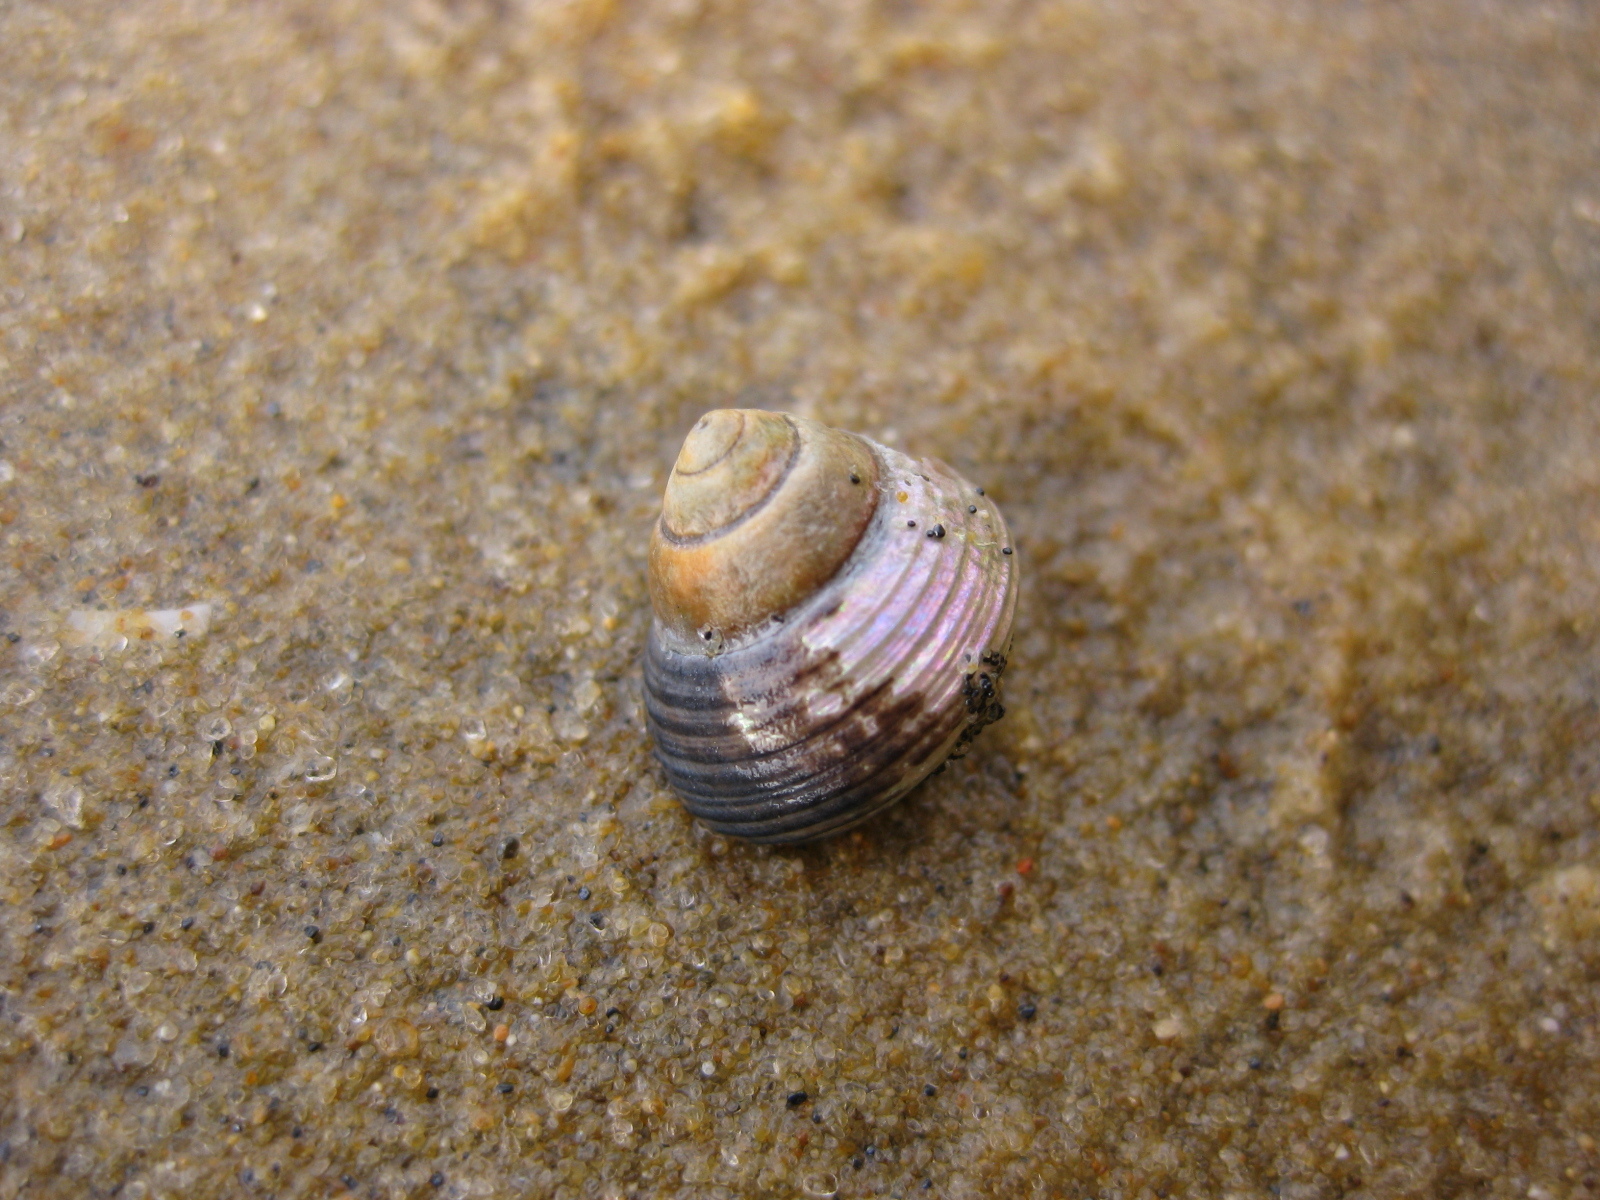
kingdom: Animalia
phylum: Mollusca
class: Gastropoda
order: Trochida
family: Trochidae
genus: Micrelenchus
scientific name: Micrelenchus huttonii
